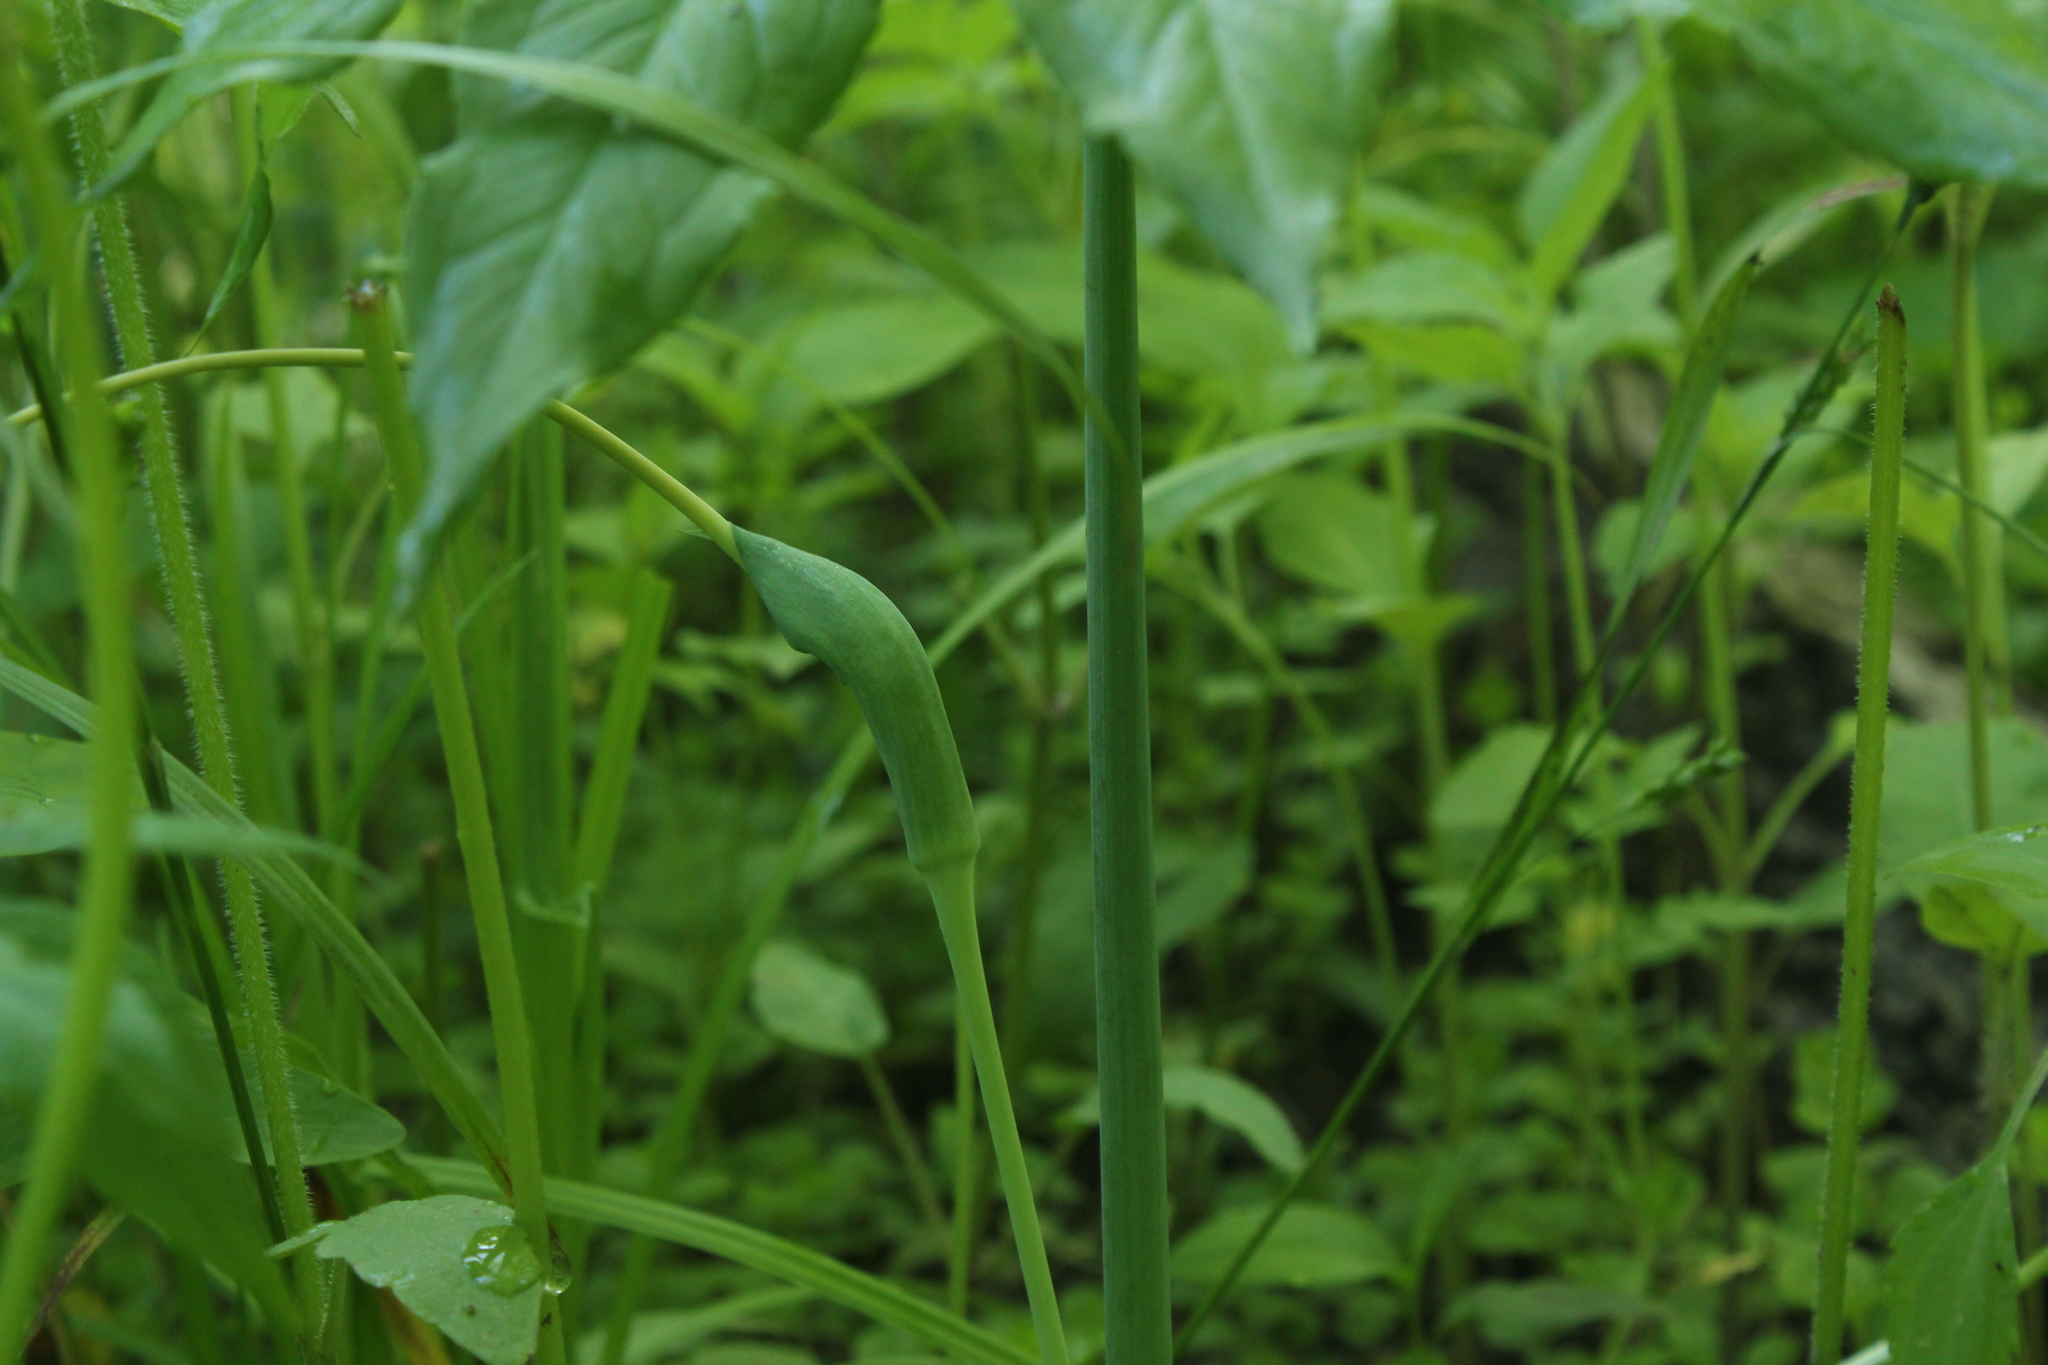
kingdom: Plantae
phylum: Tracheophyta
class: Liliopsida
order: Alismatales
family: Araceae
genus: Arisaema
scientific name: Arisaema dracontium
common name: Dragon-arum
